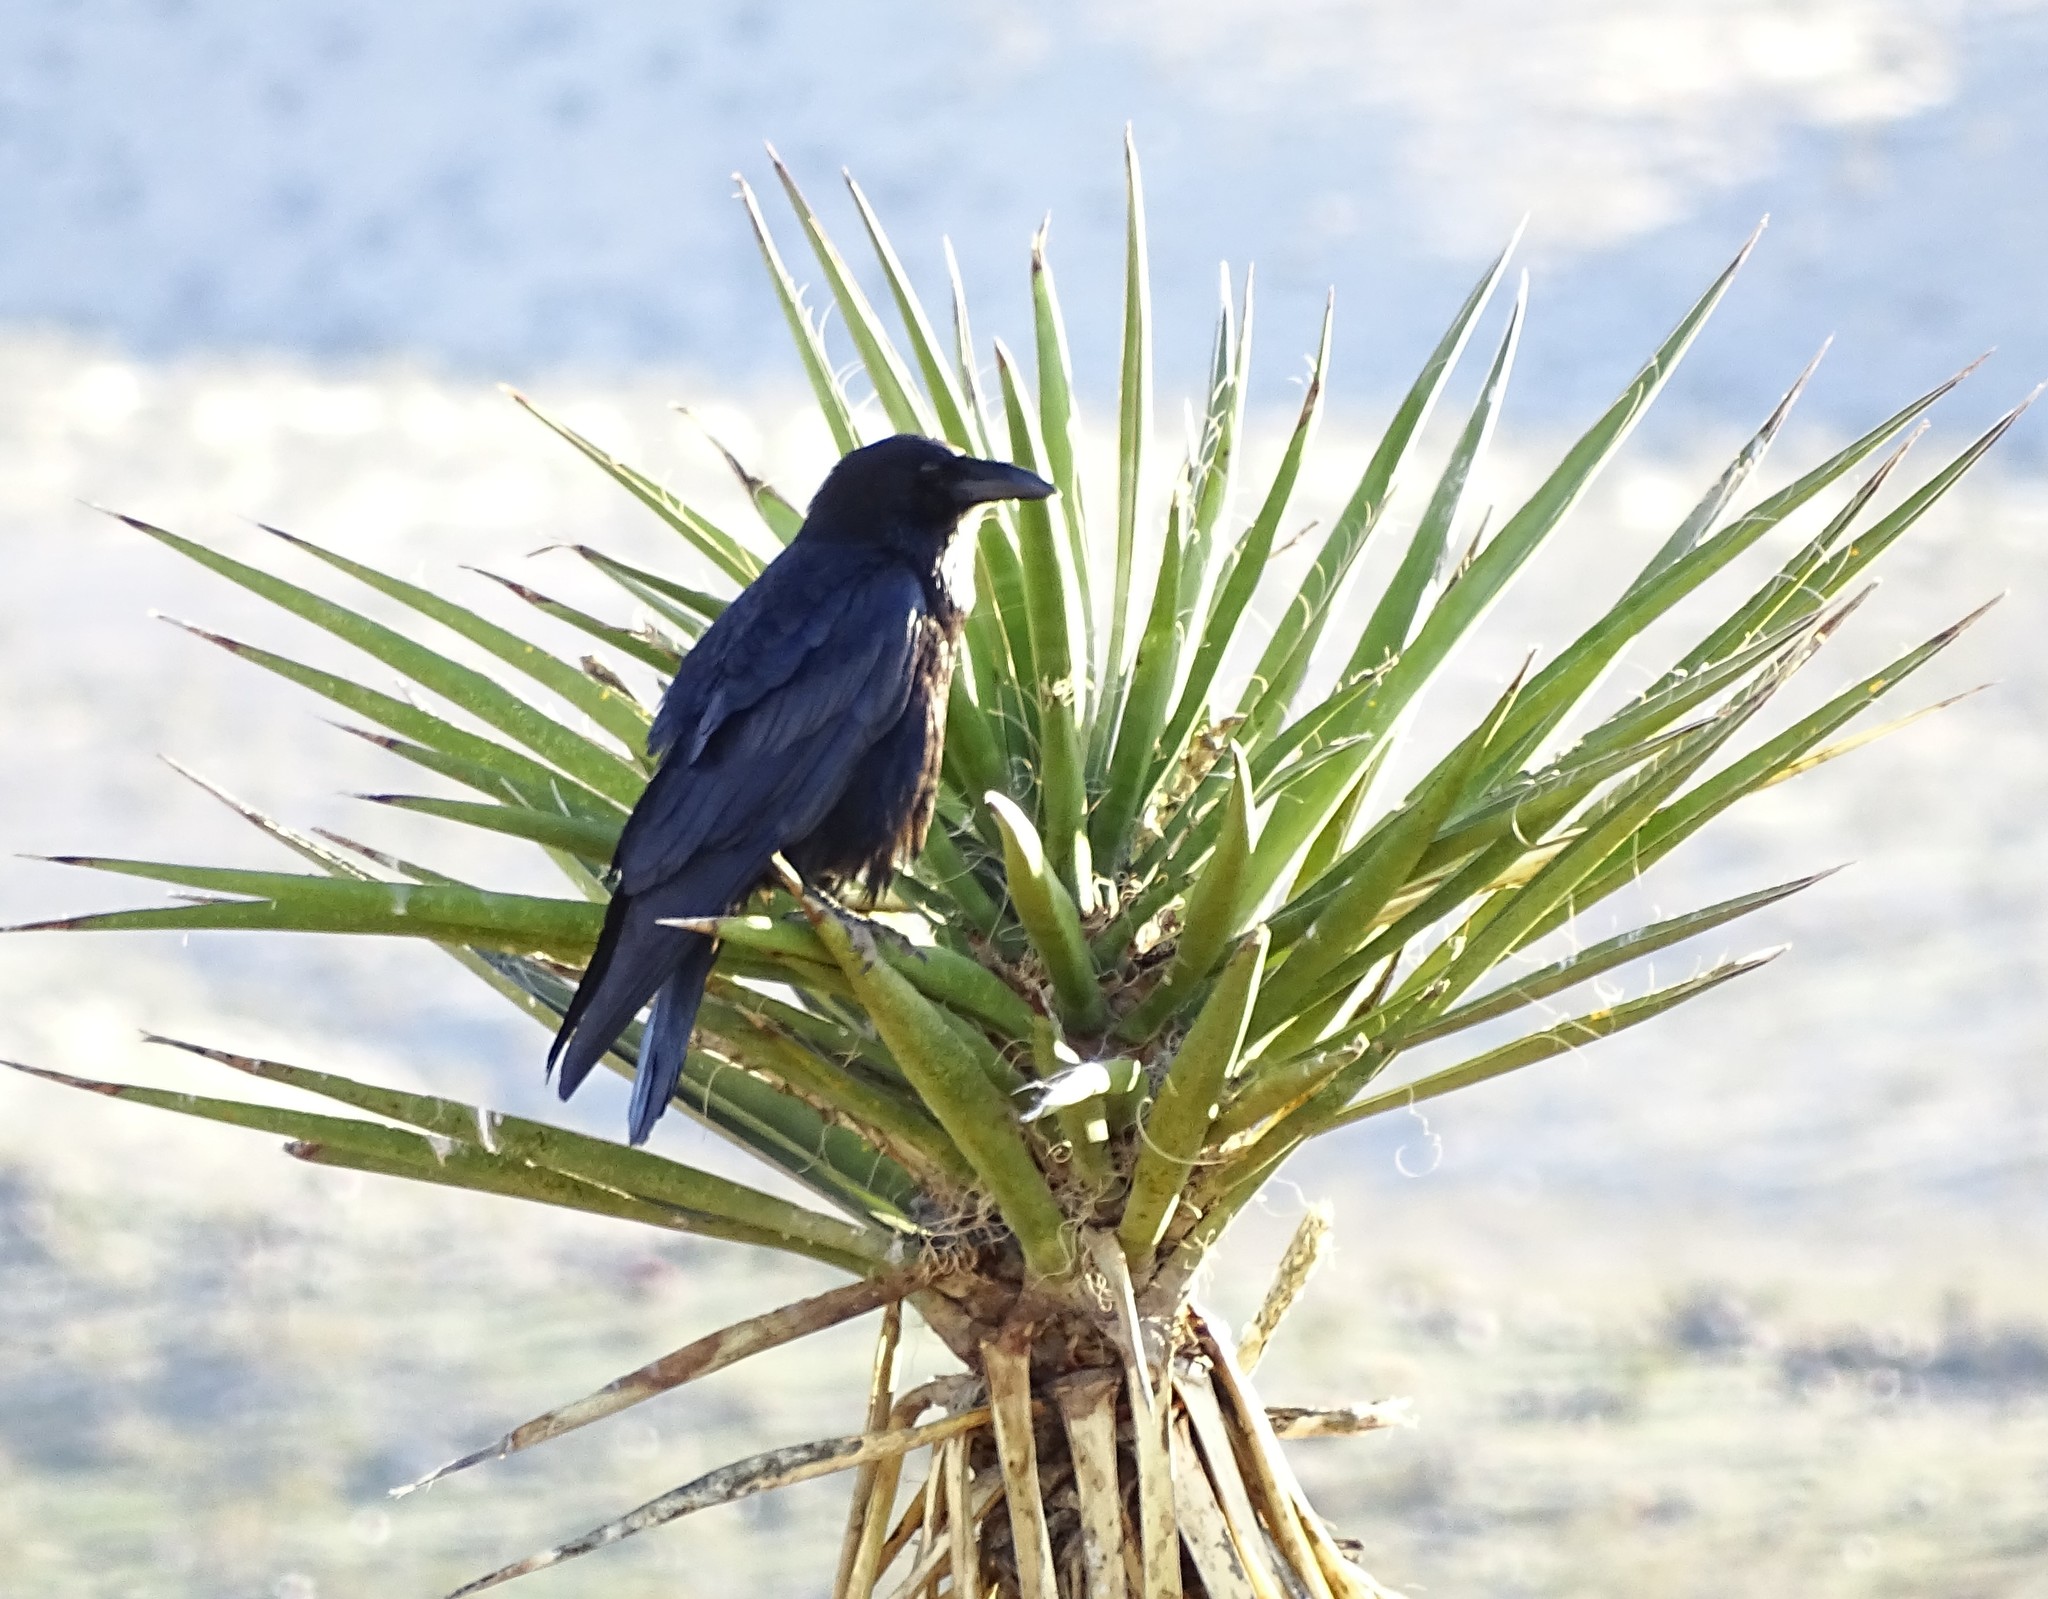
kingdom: Animalia
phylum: Chordata
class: Aves
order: Passeriformes
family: Corvidae
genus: Corvus
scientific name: Corvus corax
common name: Common raven
